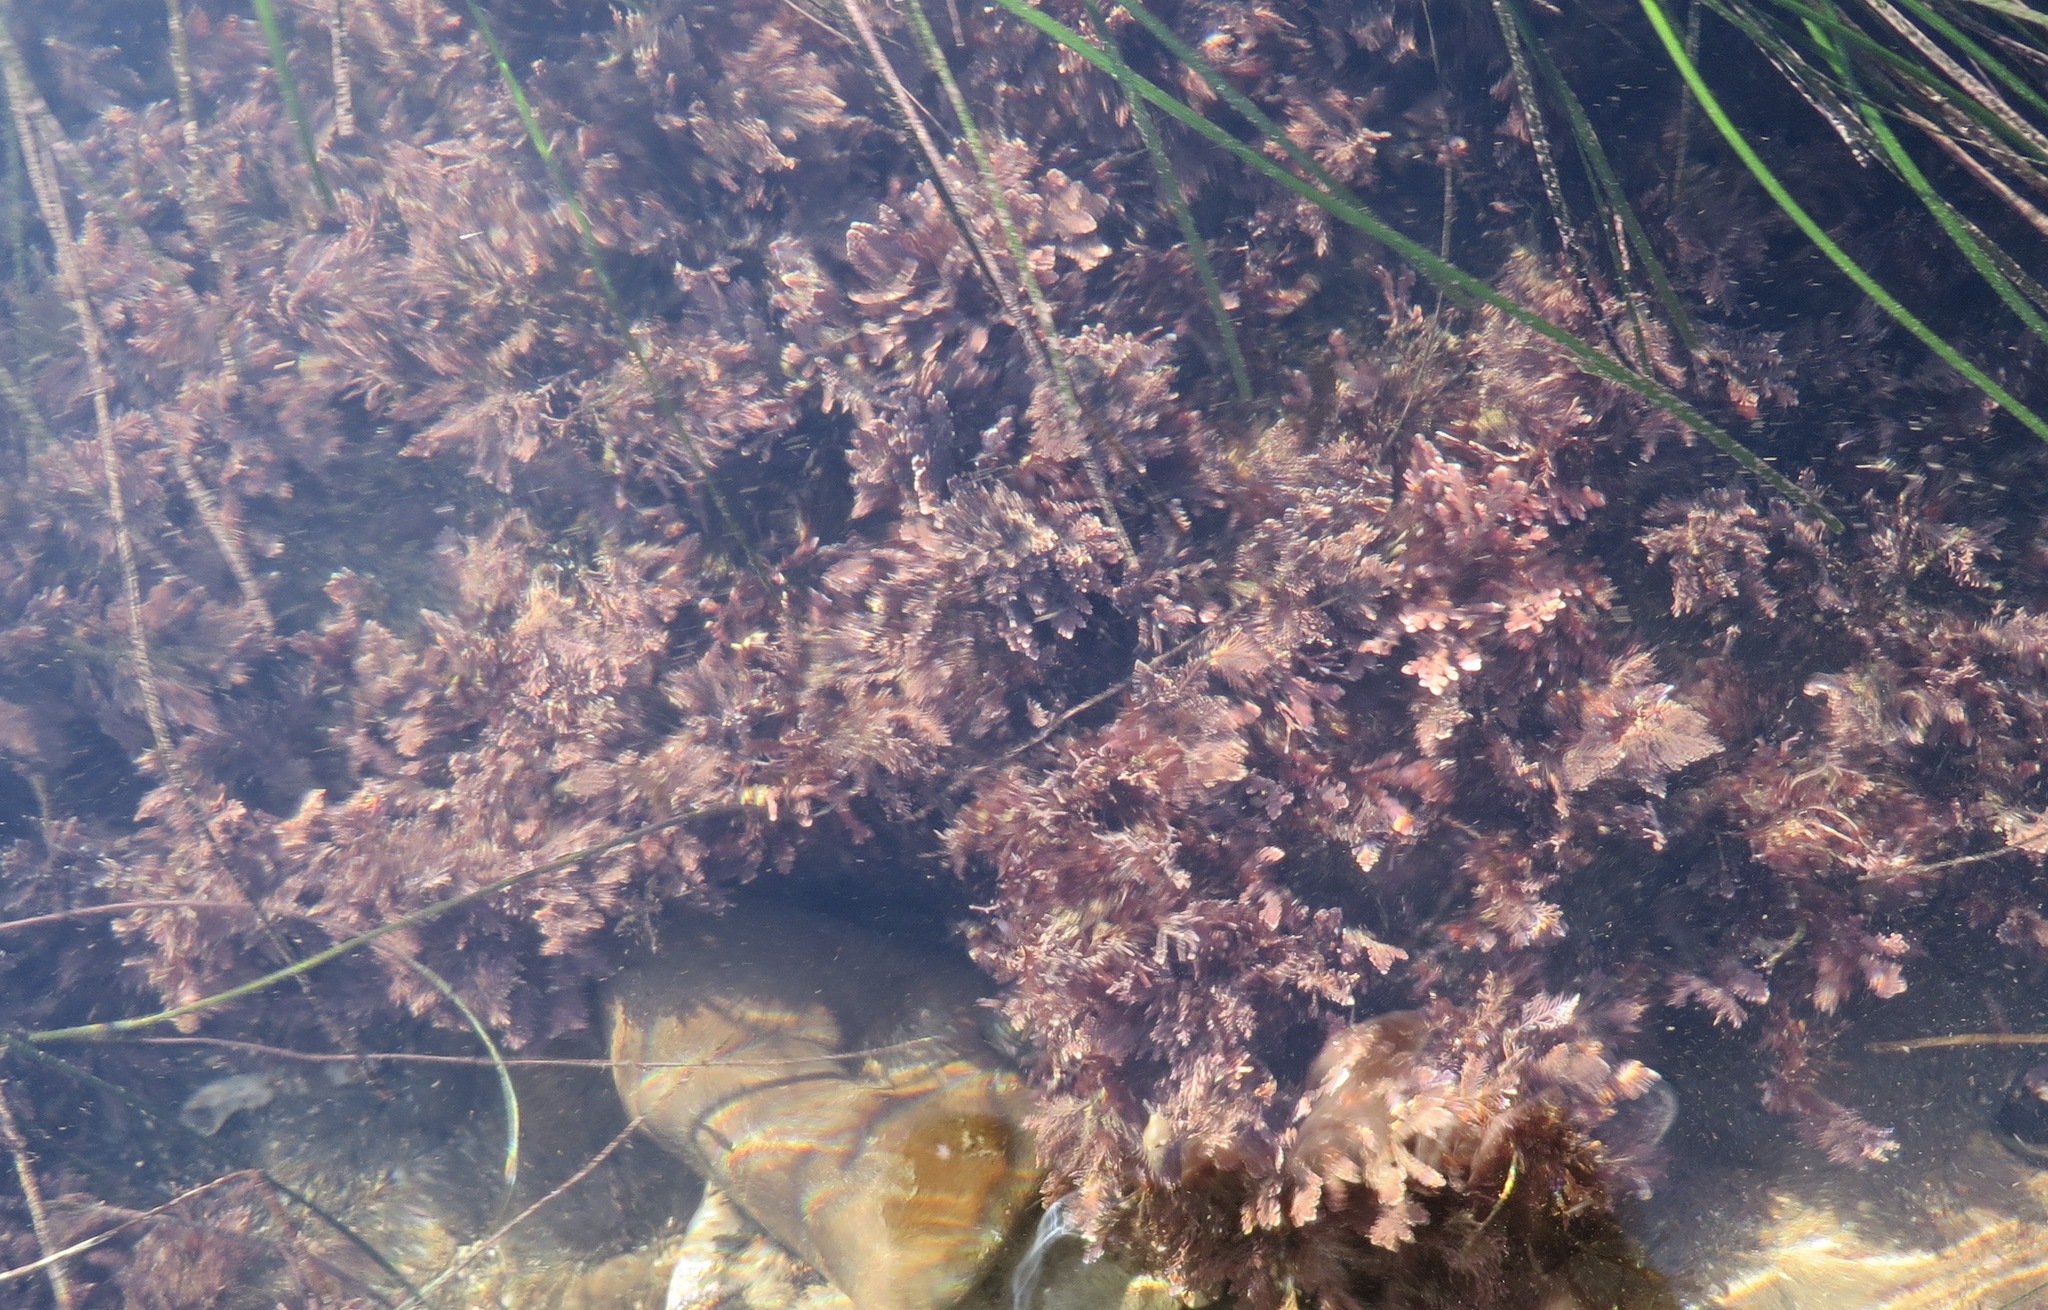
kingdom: Plantae
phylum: Rhodophyta
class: Florideophyceae
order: Corallinales
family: Corallinaceae
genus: Corallina
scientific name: Corallina officinalis
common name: Coral weed
